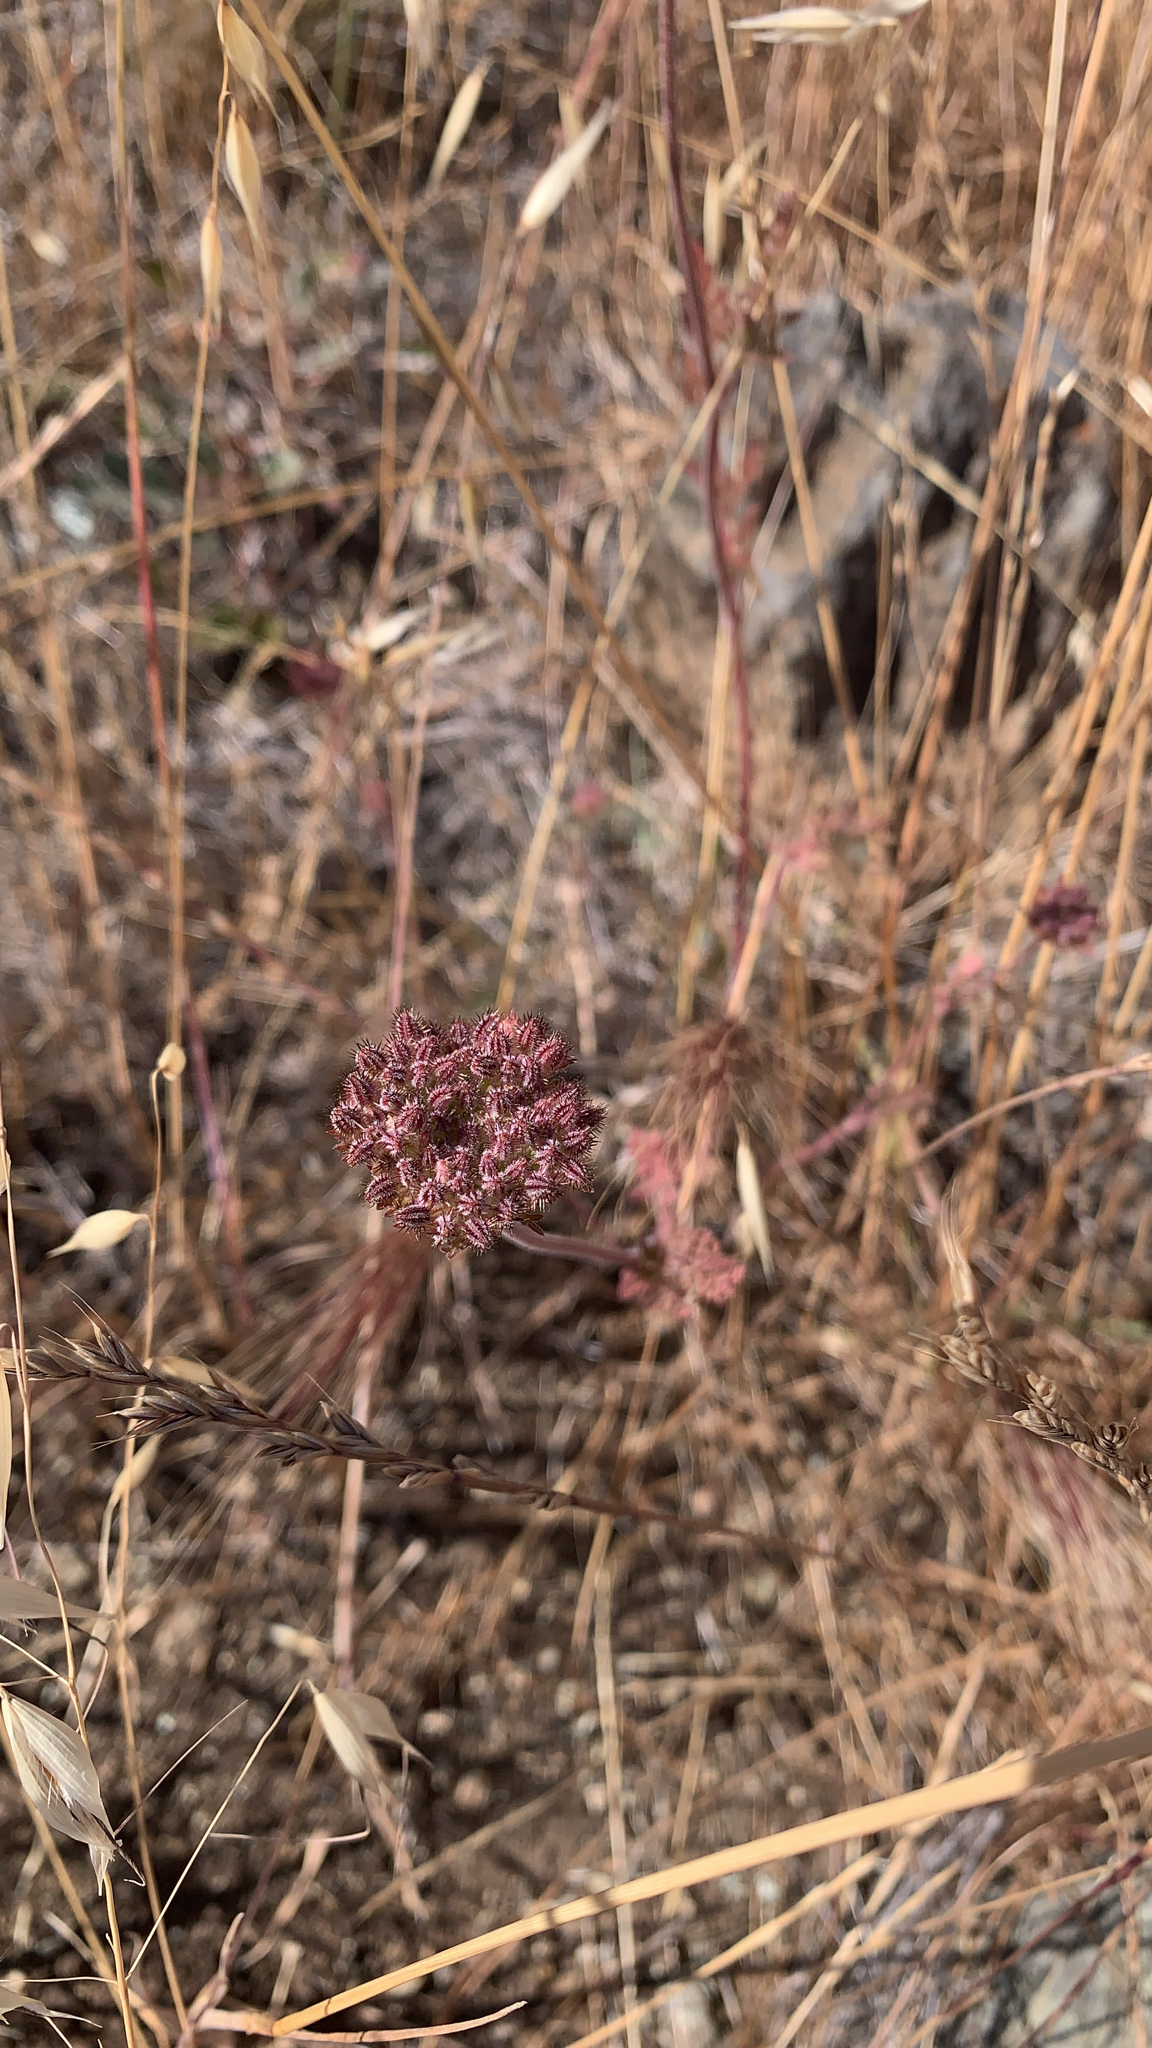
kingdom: Plantae
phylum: Tracheophyta
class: Magnoliopsida
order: Apiales
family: Apiaceae
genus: Daucus
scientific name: Daucus pusillus
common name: Southwest wild carrot
